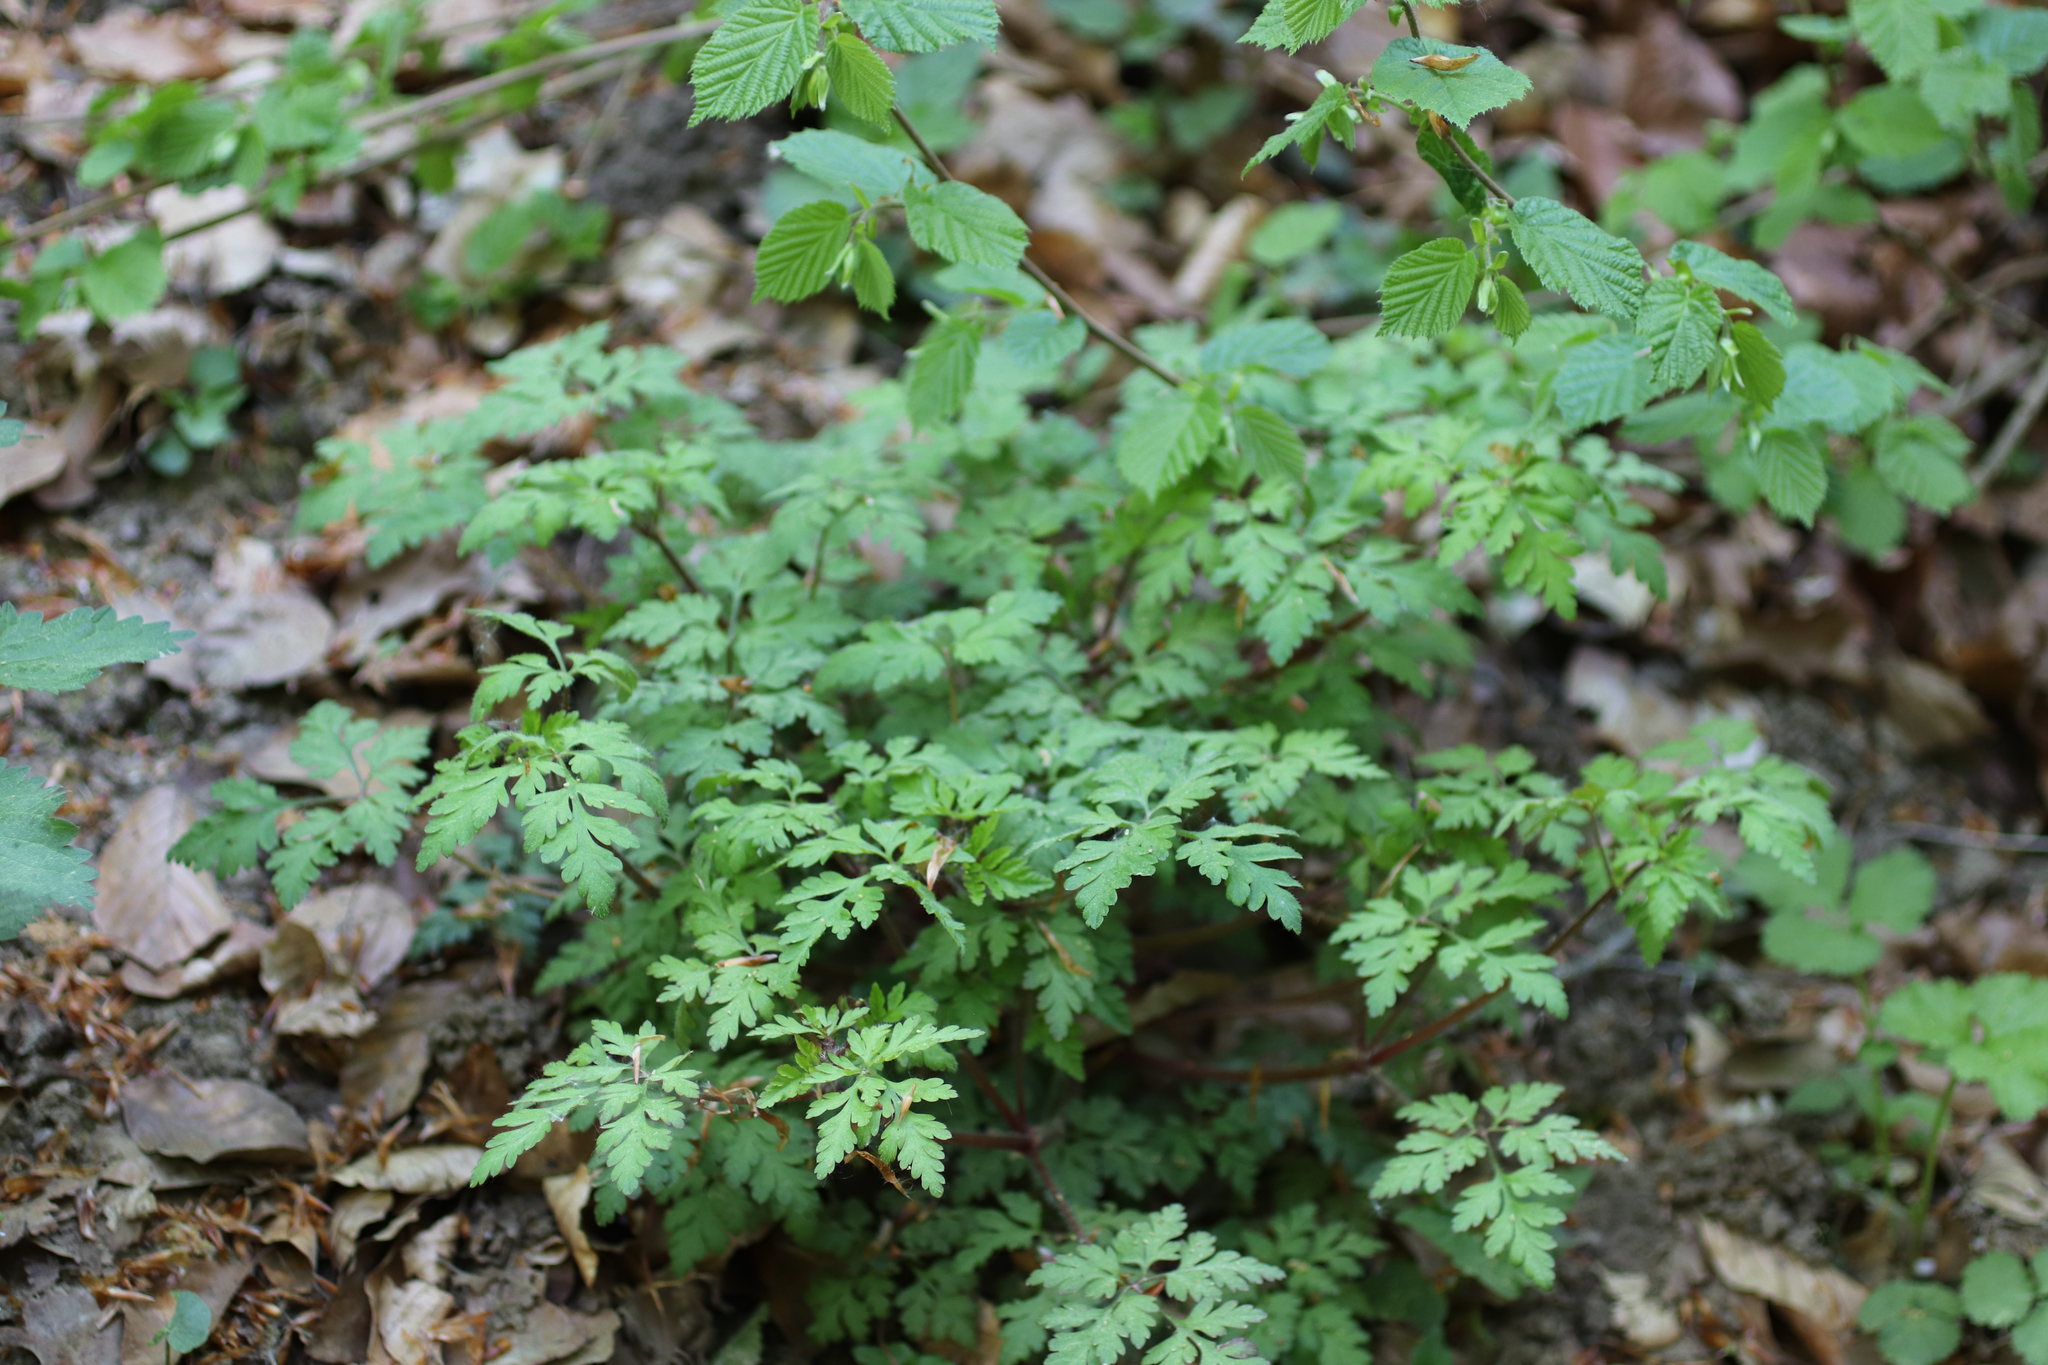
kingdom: Plantae
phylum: Tracheophyta
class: Magnoliopsida
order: Geraniales
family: Geraniaceae
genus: Geranium
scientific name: Geranium robertianum
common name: Herb-robert
